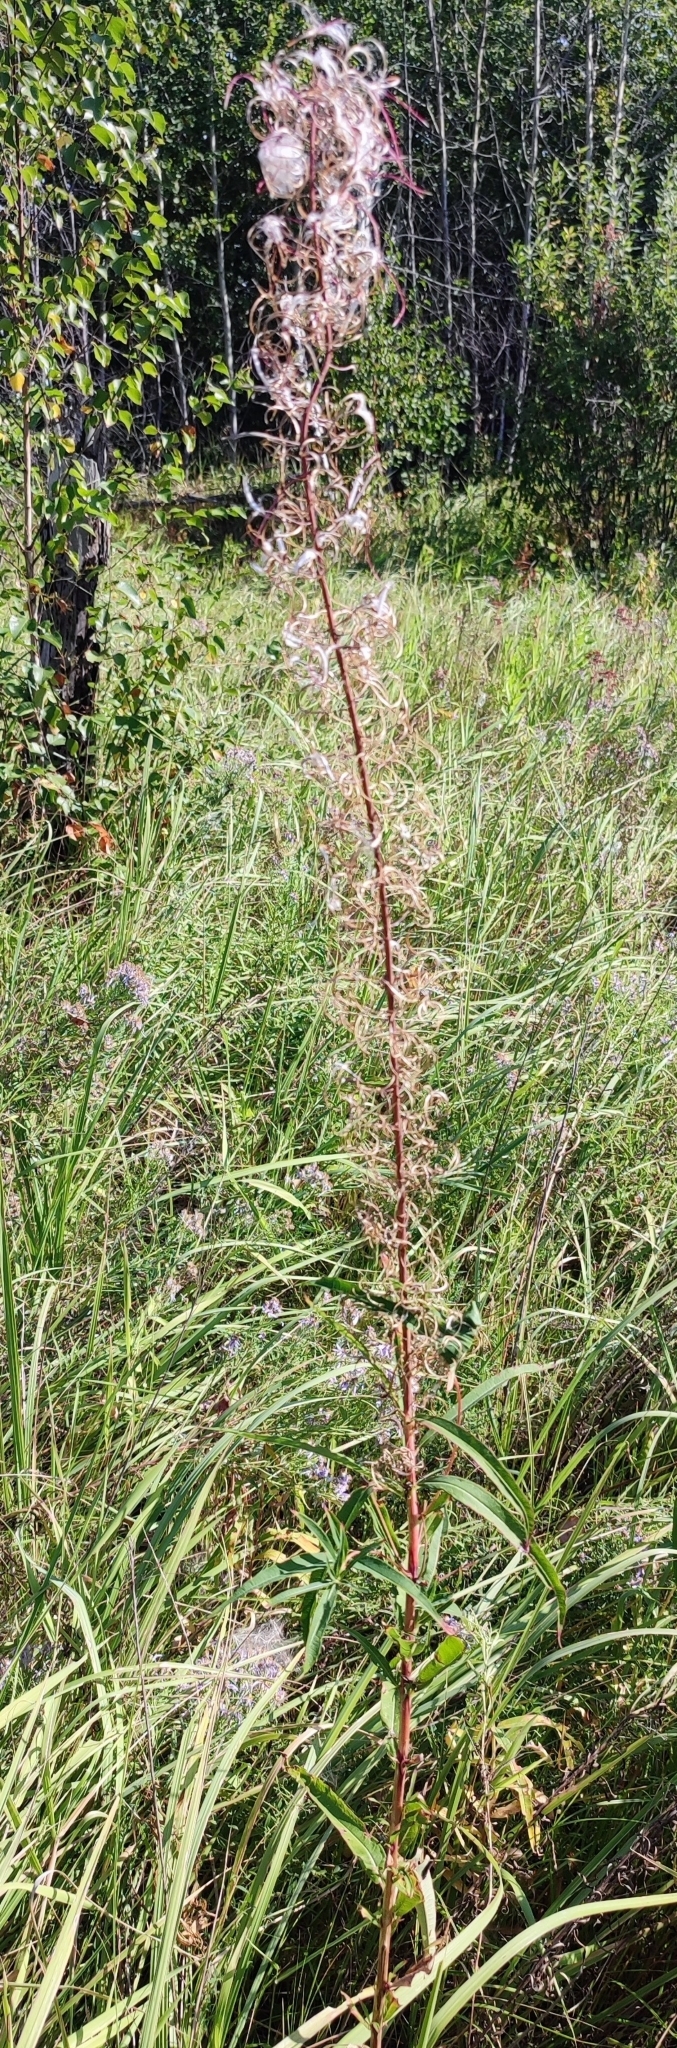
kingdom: Plantae
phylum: Tracheophyta
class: Magnoliopsida
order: Myrtales
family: Onagraceae
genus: Chamaenerion
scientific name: Chamaenerion angustifolium
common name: Fireweed
